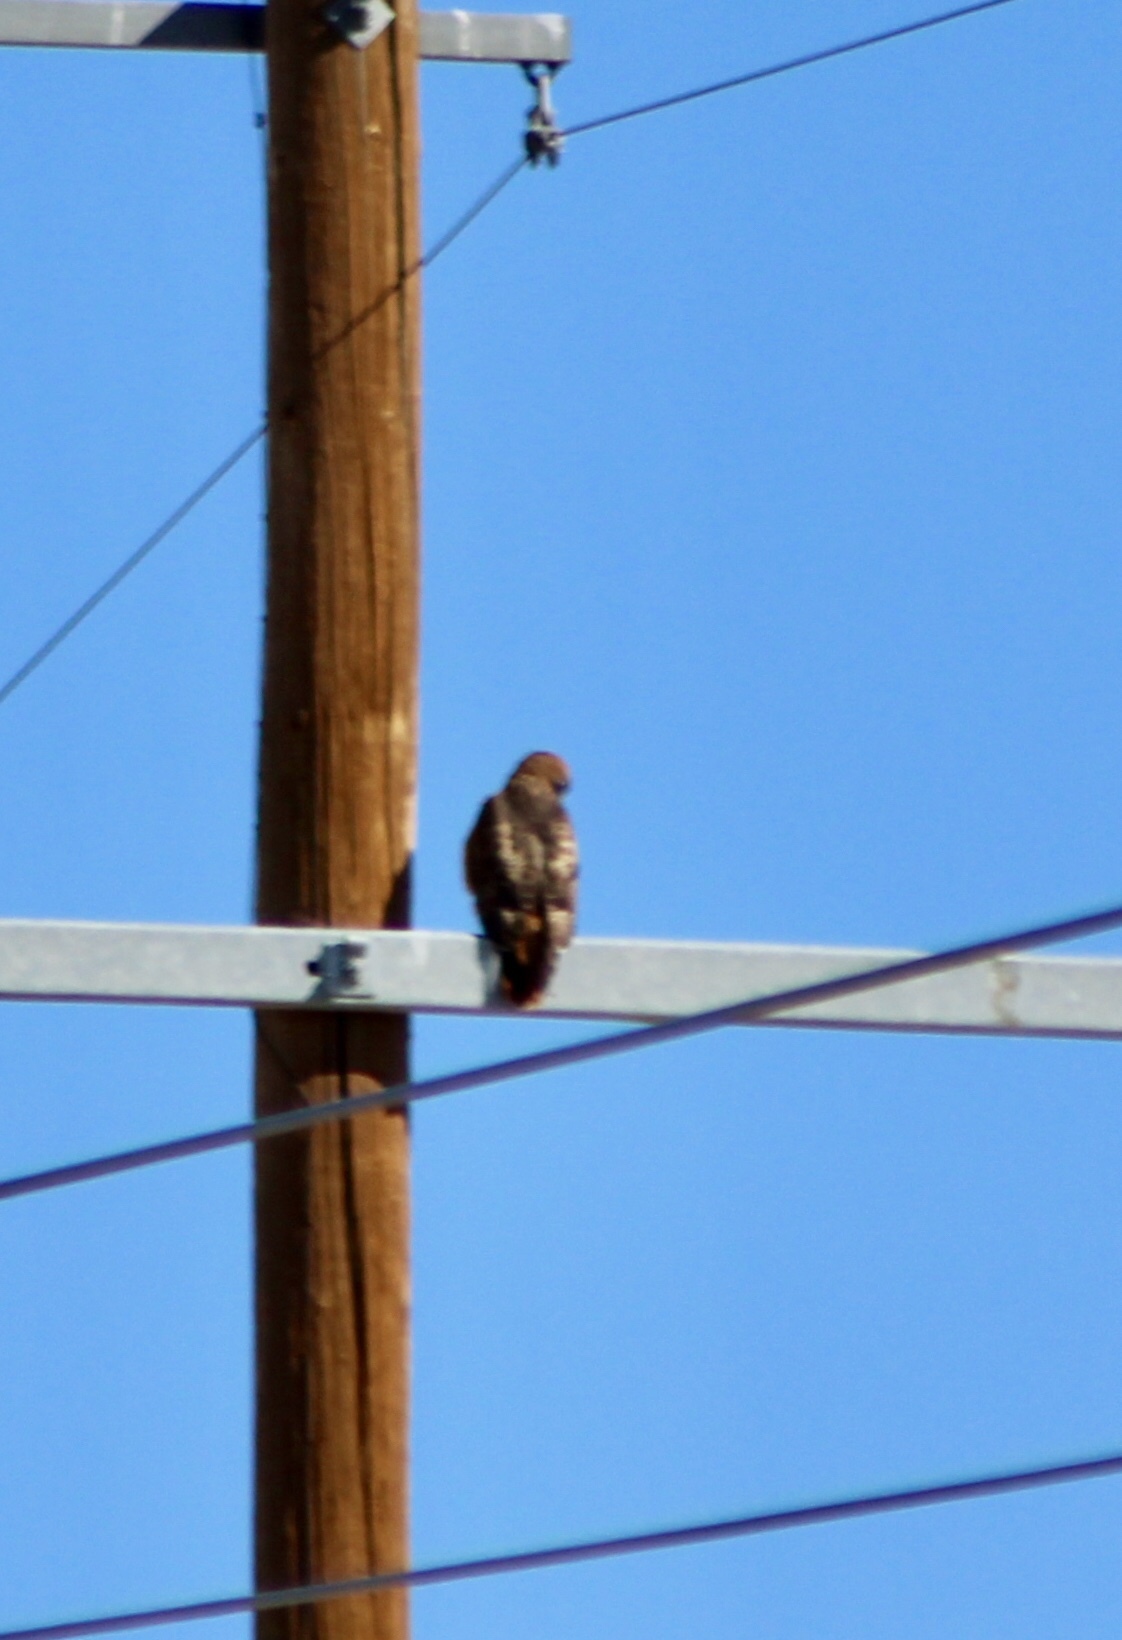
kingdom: Animalia
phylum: Chordata
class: Aves
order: Accipitriformes
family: Accipitridae
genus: Buteo
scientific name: Buteo jamaicensis
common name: Red-tailed hawk
